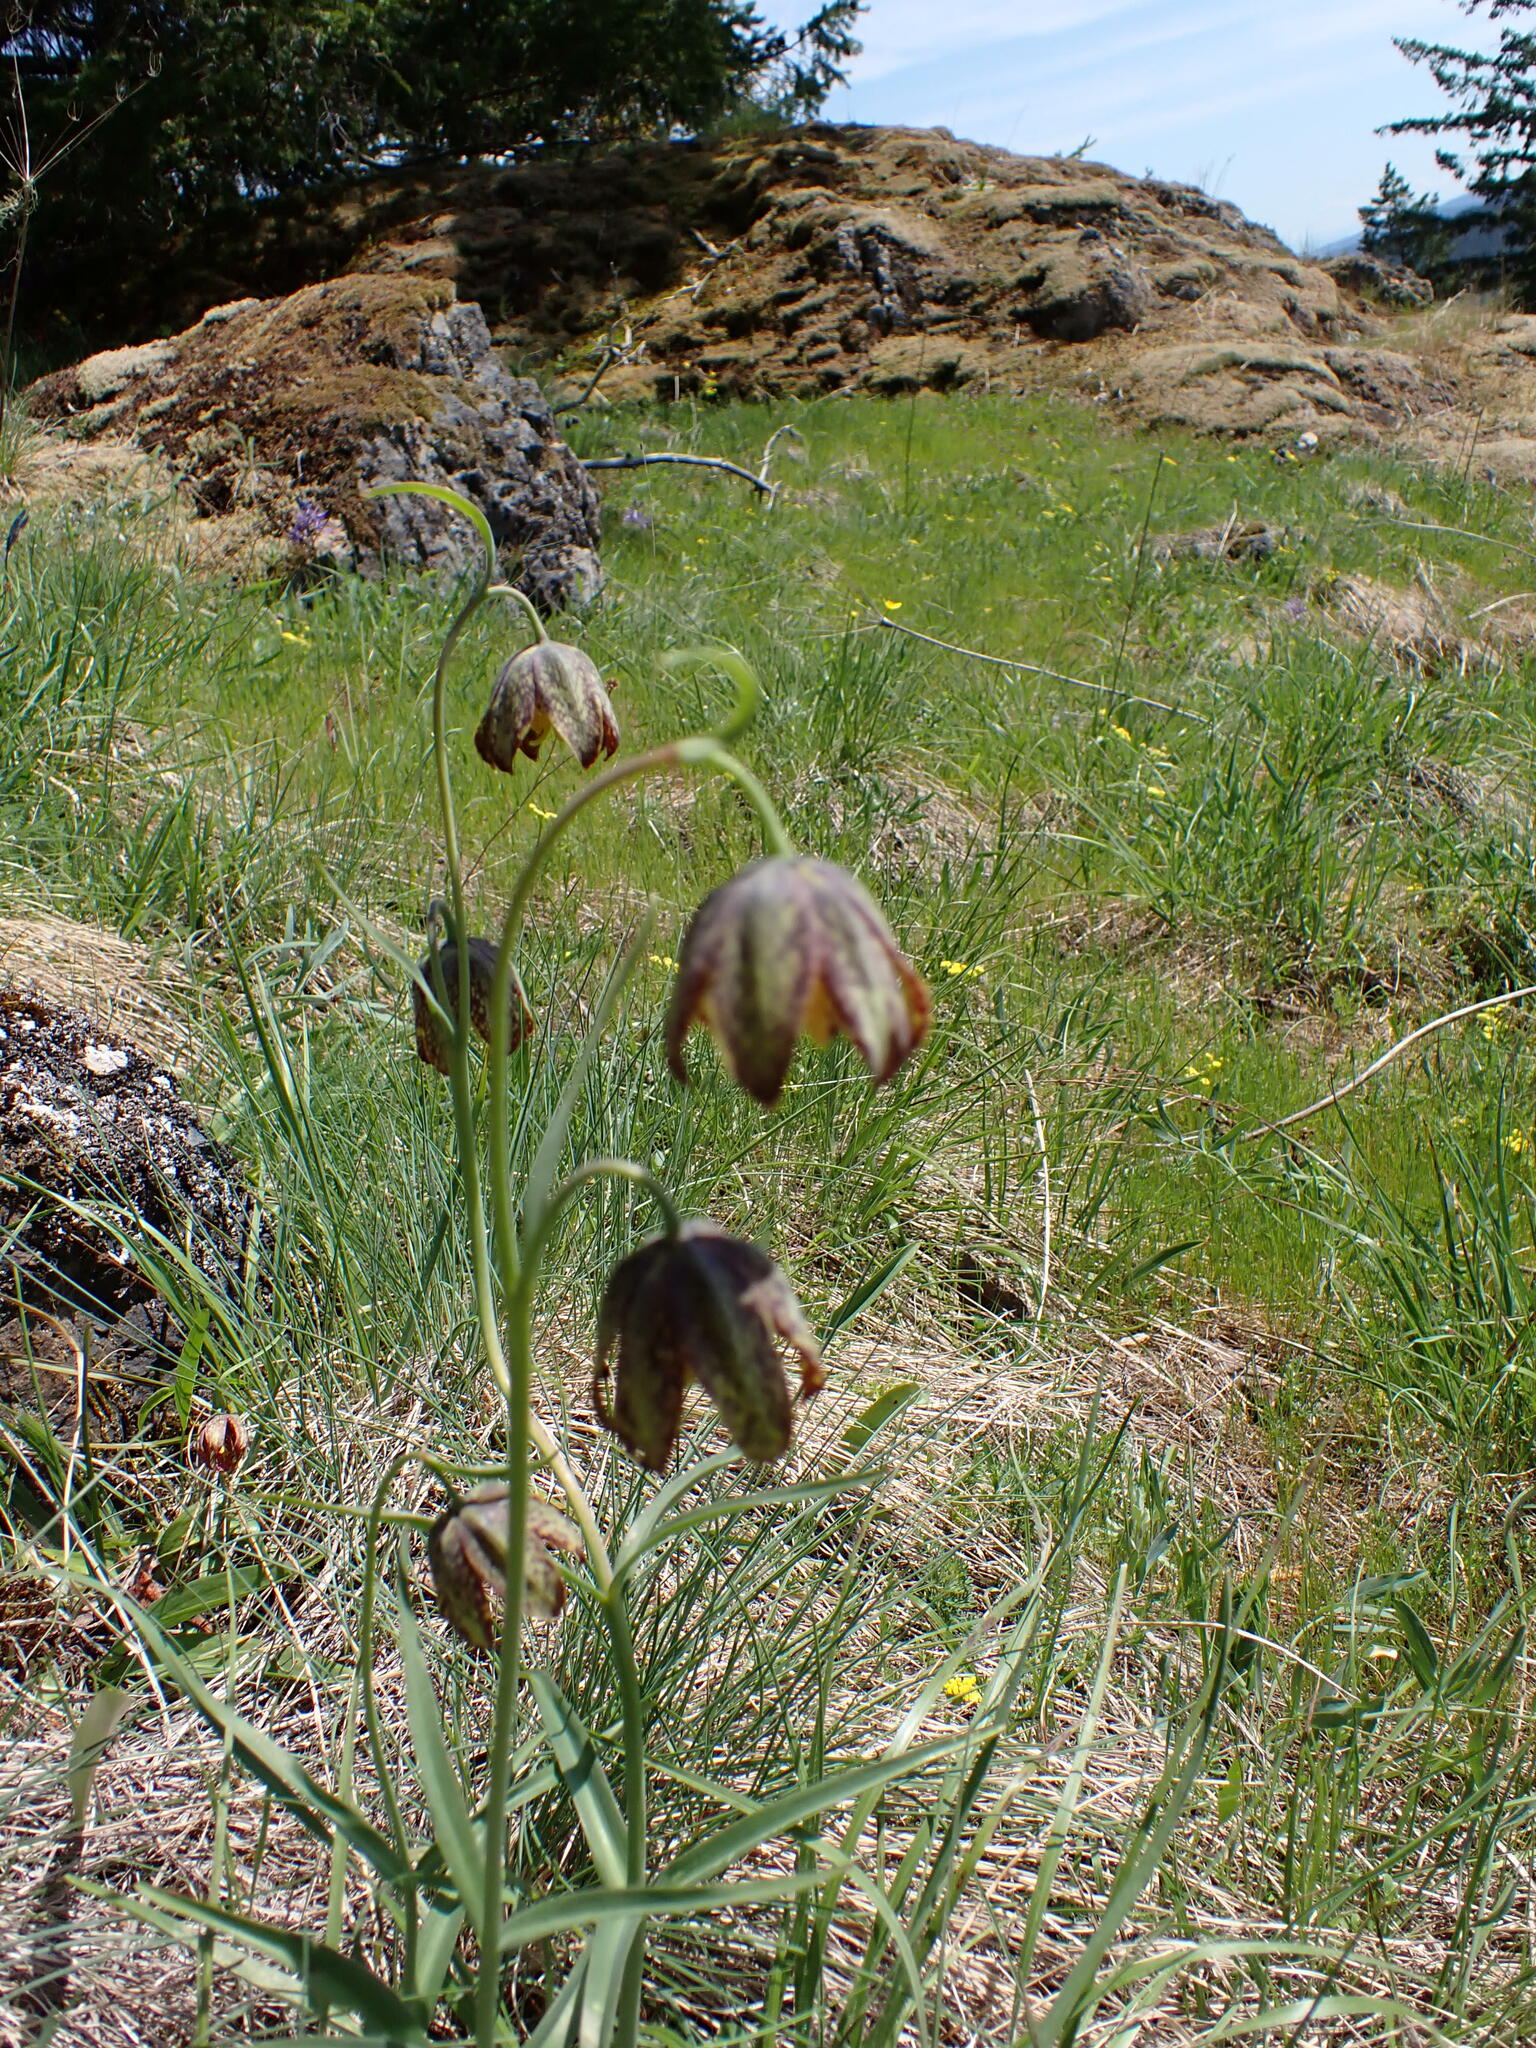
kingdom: Plantae
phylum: Tracheophyta
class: Liliopsida
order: Liliales
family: Liliaceae
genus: Fritillaria
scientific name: Fritillaria affinis
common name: Ojai fritillary
